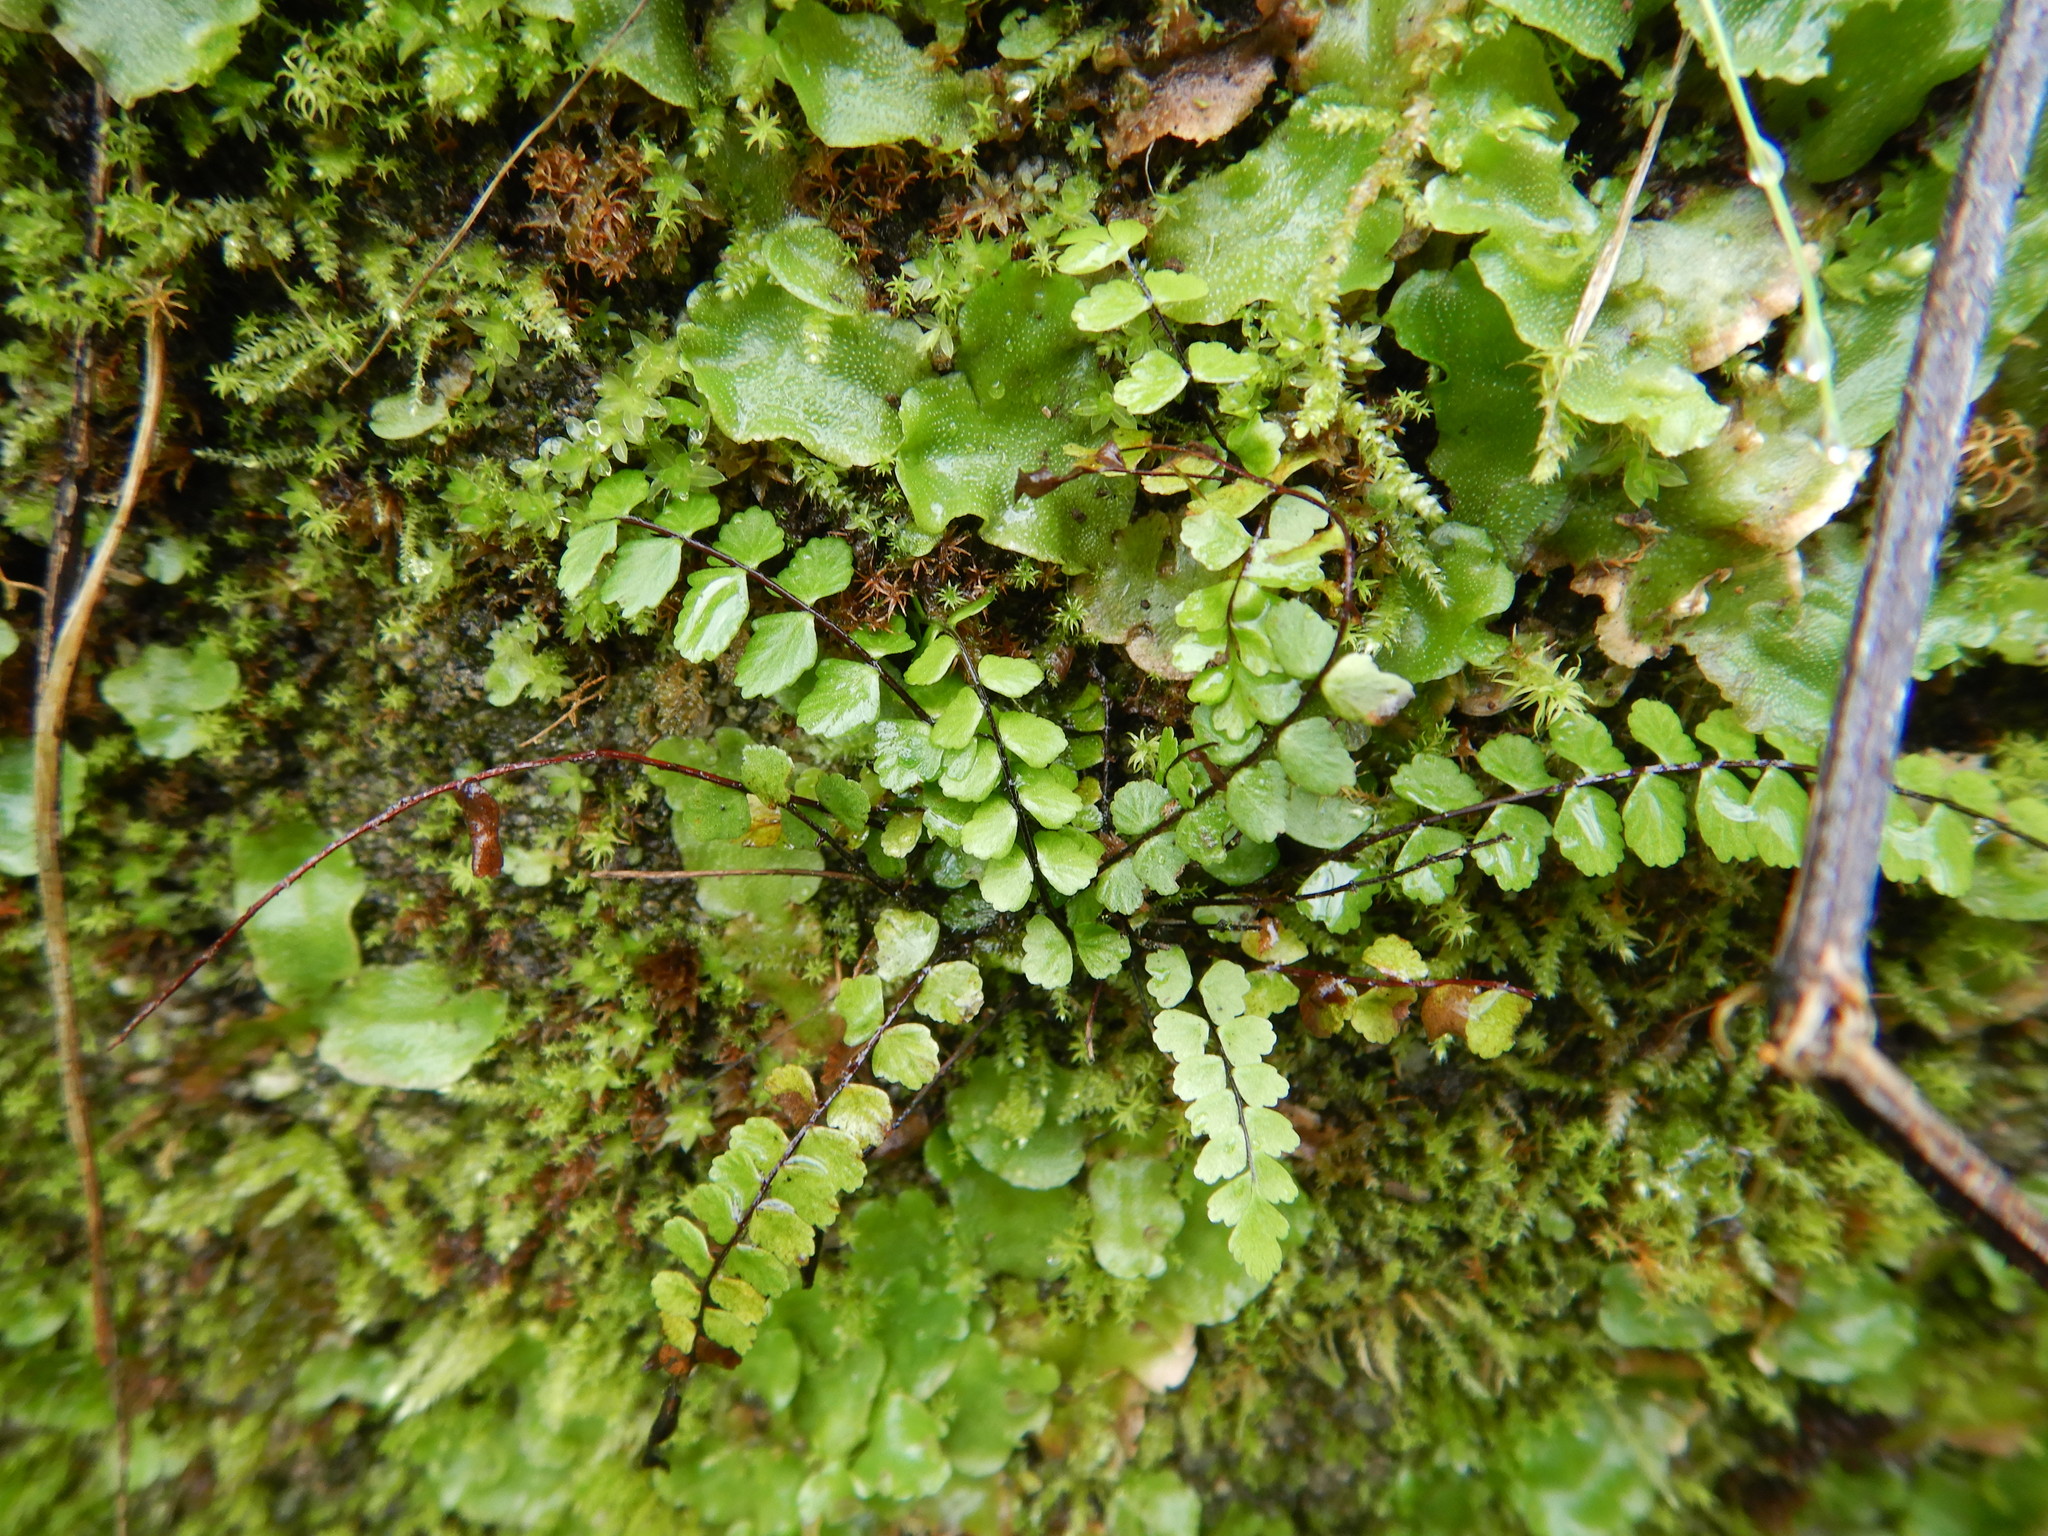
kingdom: Plantae
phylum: Tracheophyta
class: Polypodiopsida
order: Polypodiales
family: Aspleniaceae
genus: Asplenium
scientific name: Asplenium trichomanes
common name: Maidenhair spleenwort
